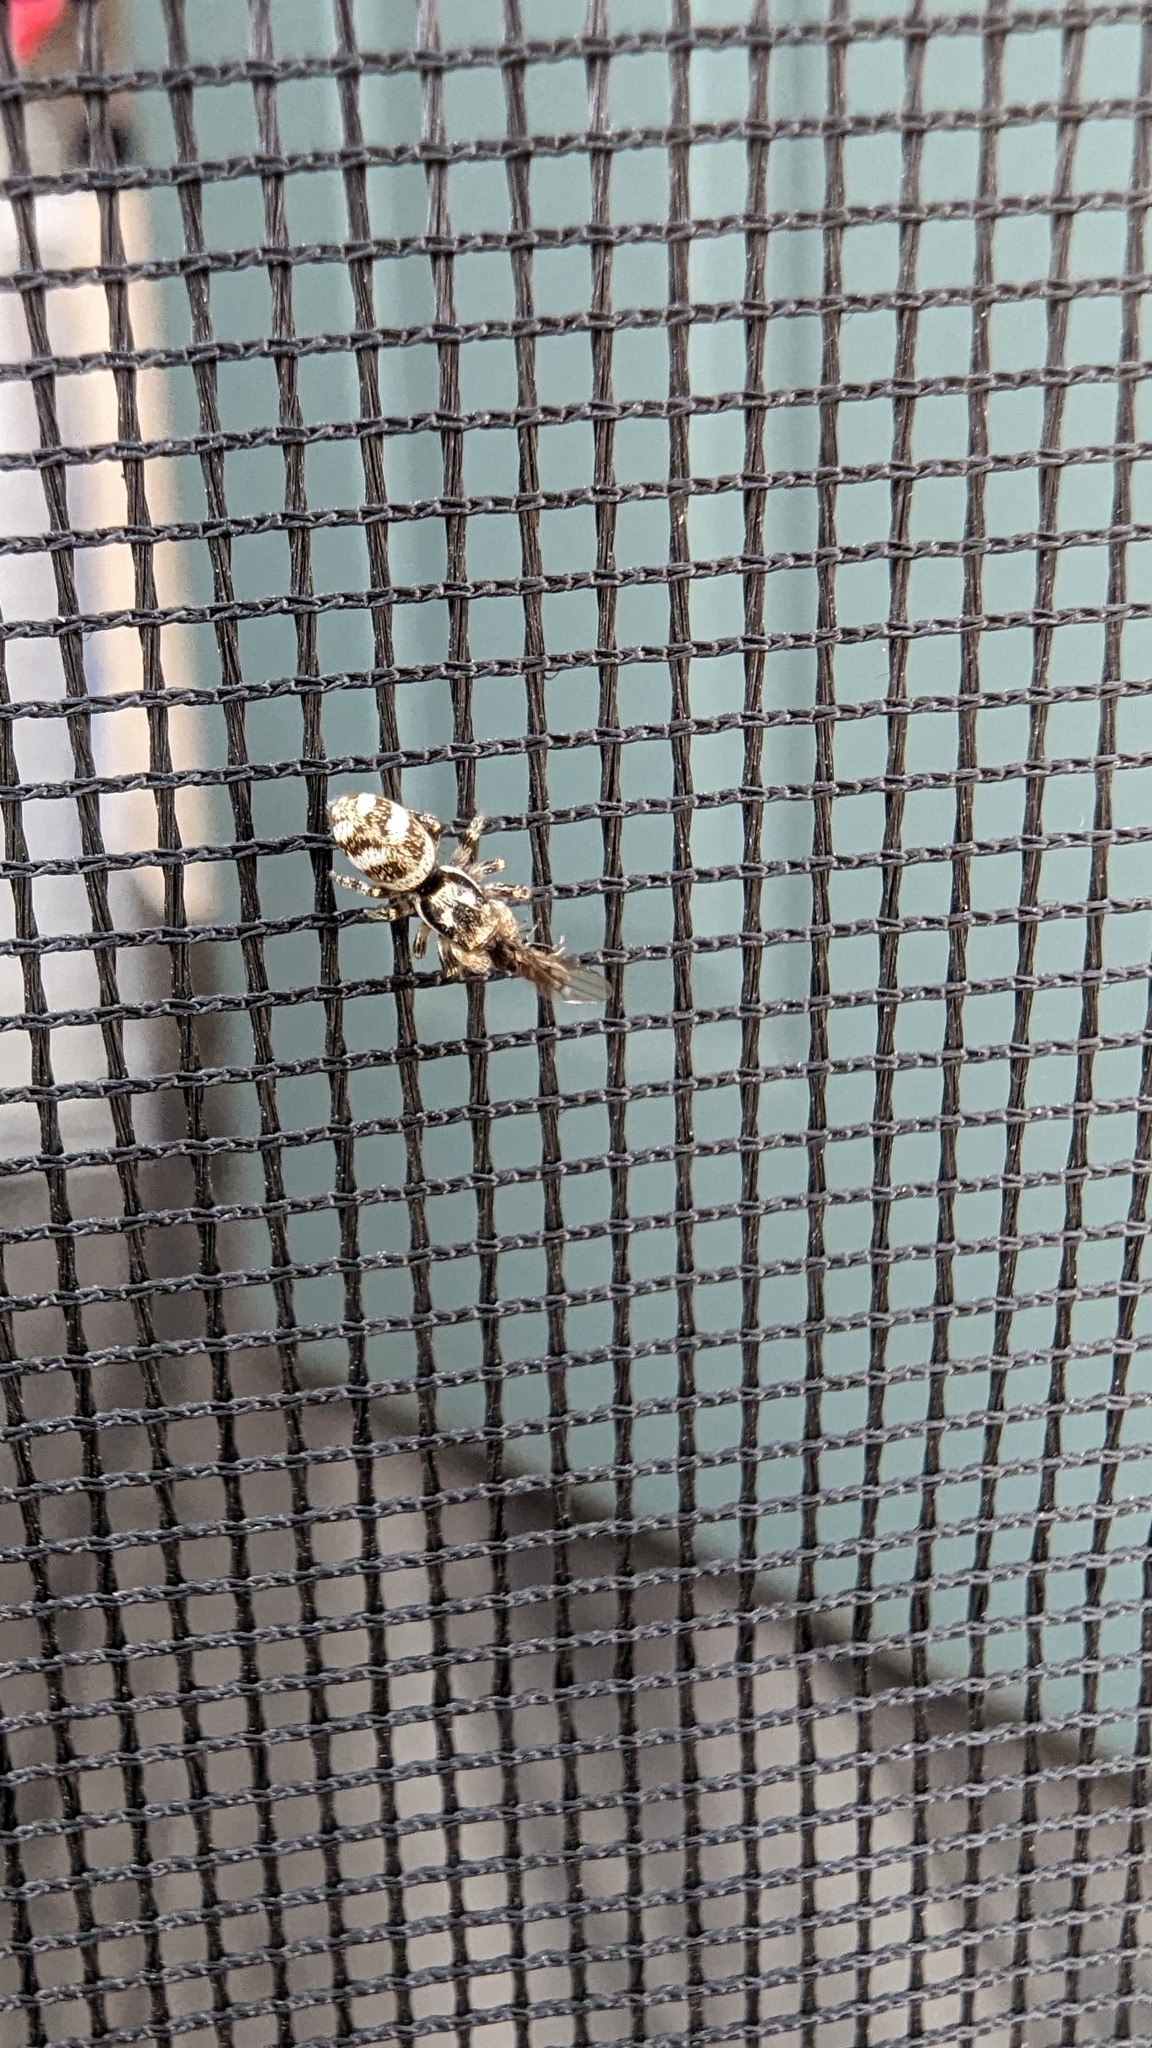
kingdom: Animalia
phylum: Arthropoda
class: Arachnida
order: Araneae
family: Salticidae
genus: Salticus
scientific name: Salticus scenicus
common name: Zebra jumper
